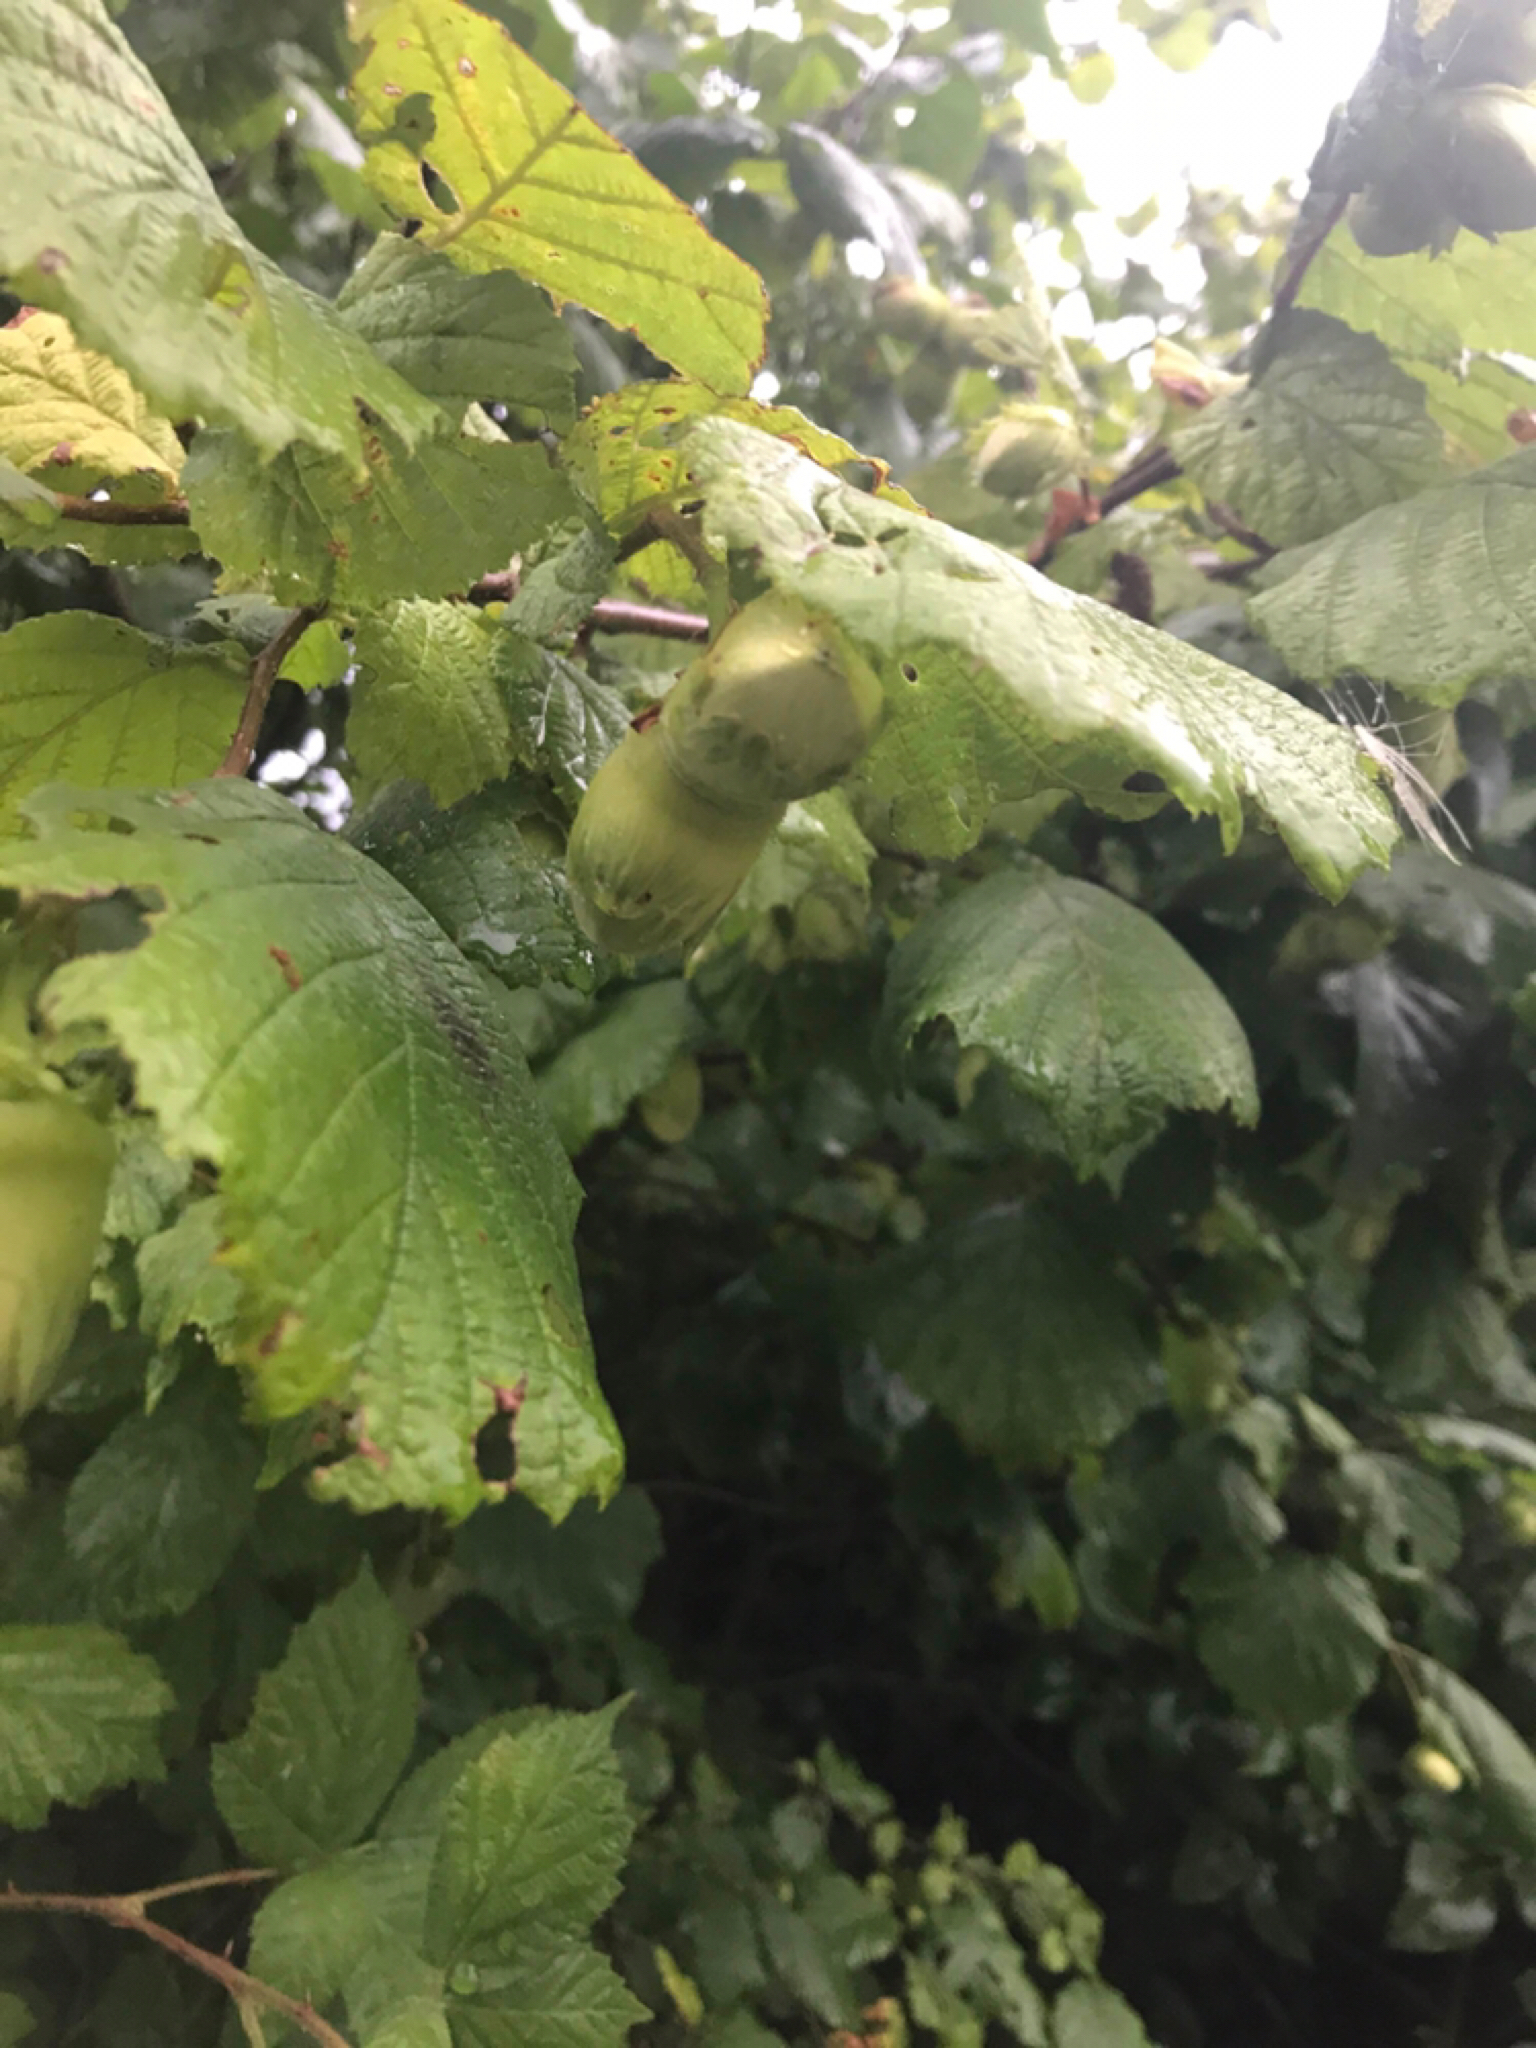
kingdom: Plantae
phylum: Tracheophyta
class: Magnoliopsida
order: Fagales
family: Betulaceae
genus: Corylus
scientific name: Corylus avellana
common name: European hazel
